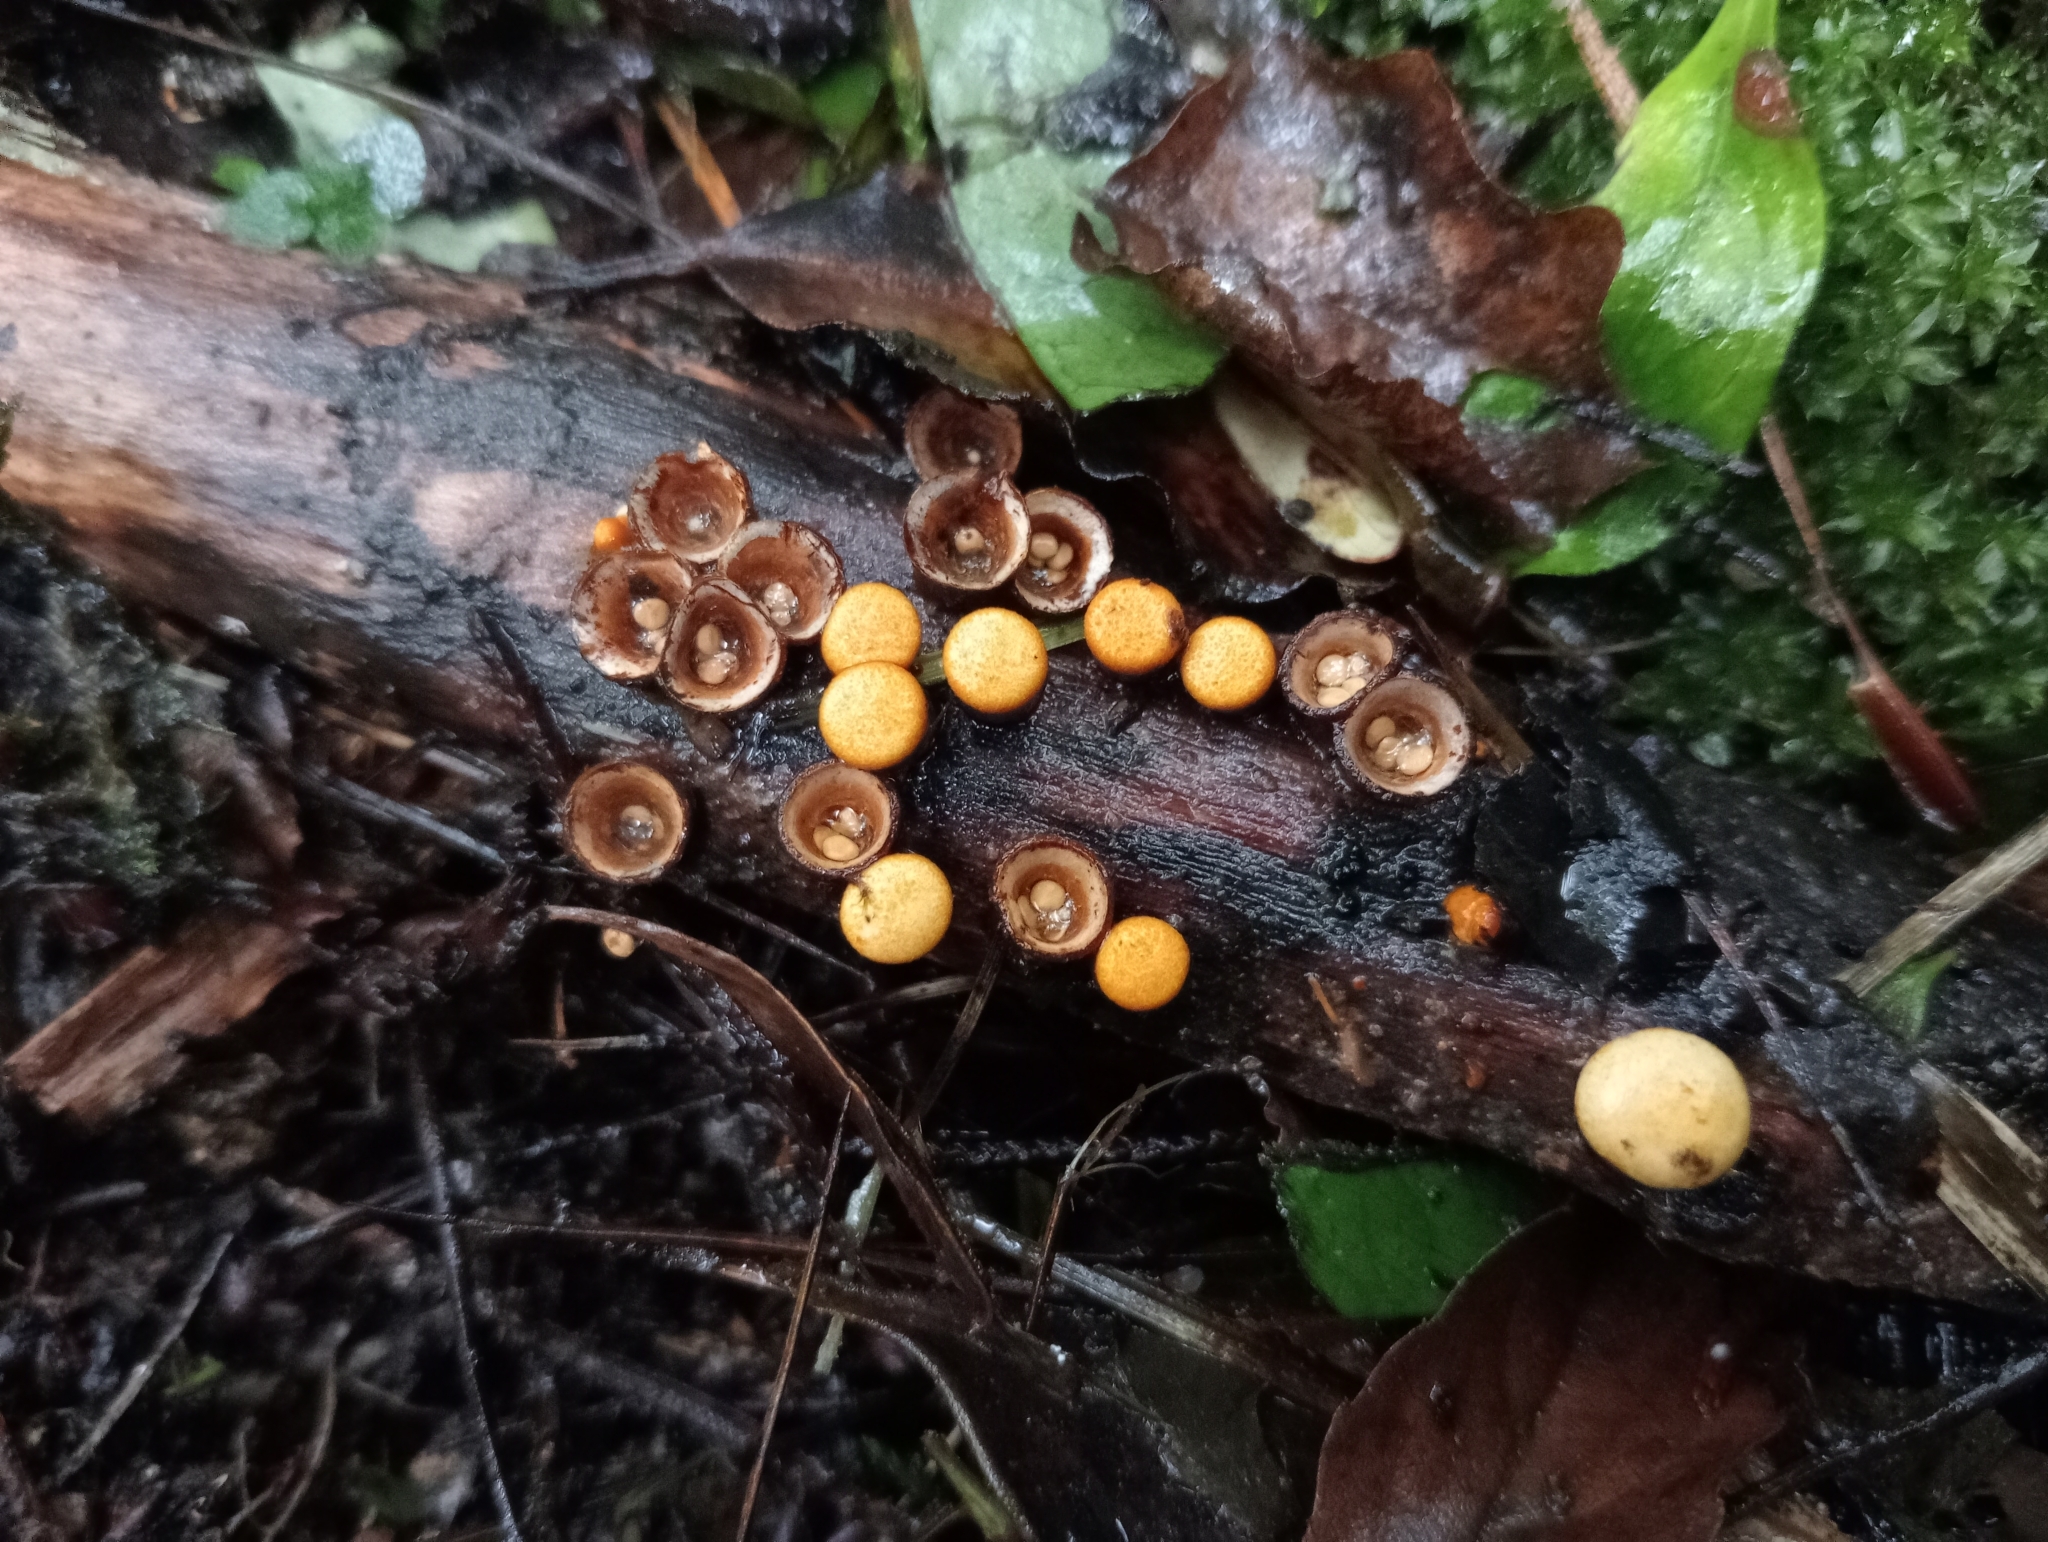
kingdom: Fungi
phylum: Basidiomycota
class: Agaricomycetes
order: Agaricales
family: Nidulariaceae
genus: Crucibulum
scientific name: Crucibulum simile
